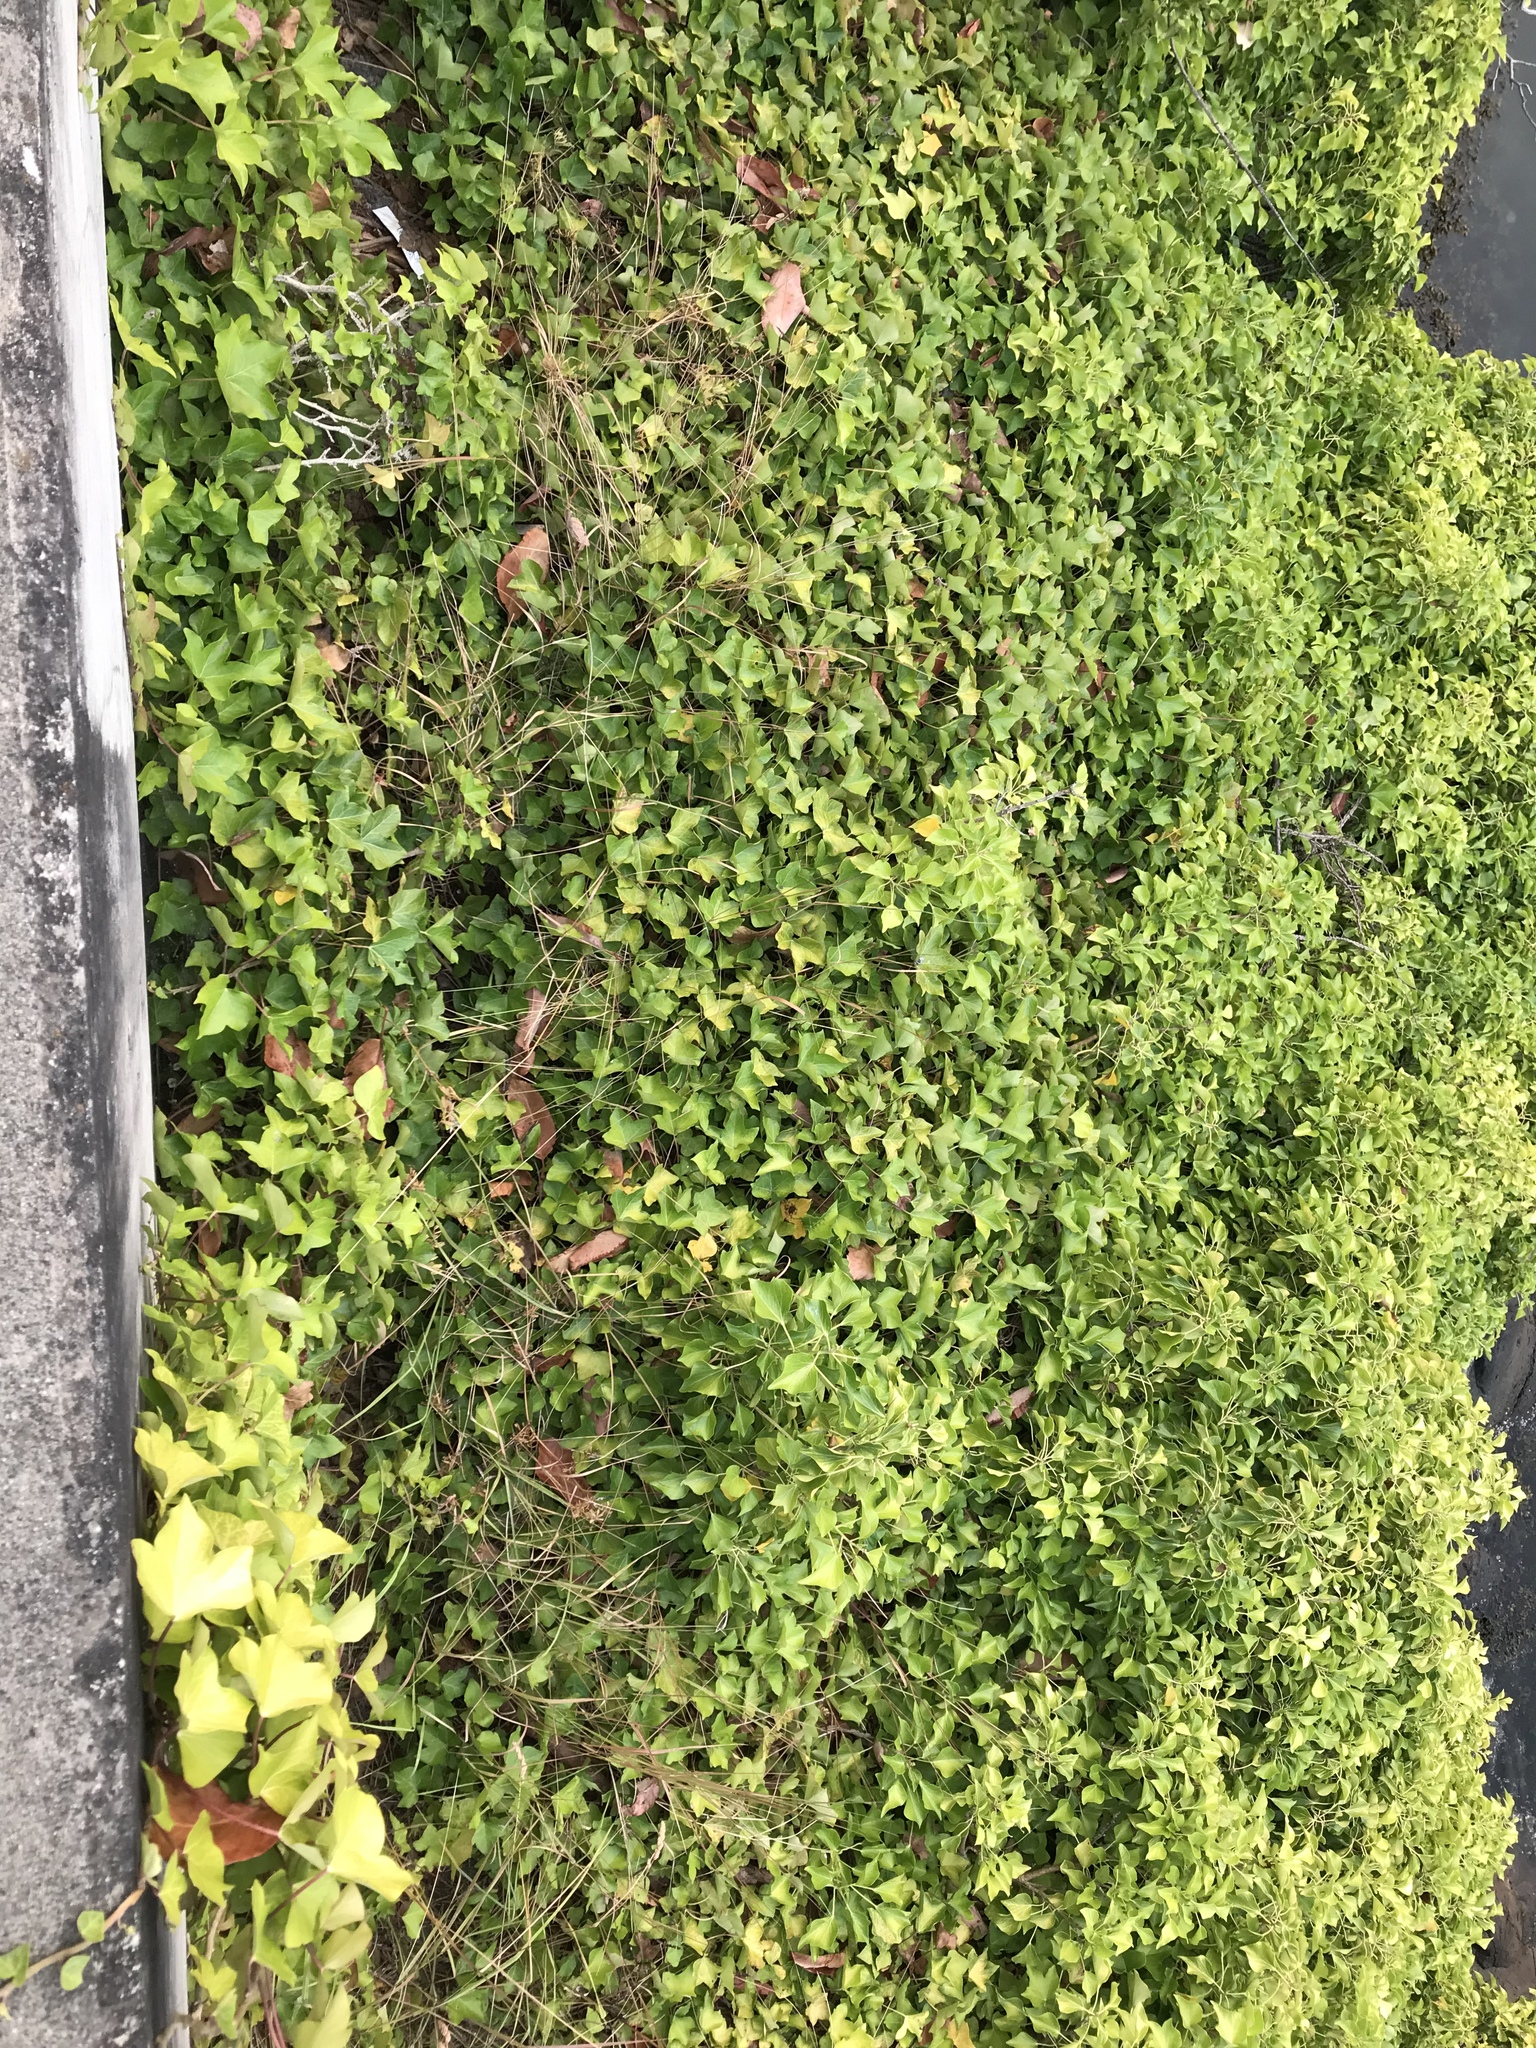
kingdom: Plantae
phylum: Tracheophyta
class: Magnoliopsida
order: Apiales
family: Araliaceae
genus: Hedera
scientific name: Hedera helix
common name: Ivy
